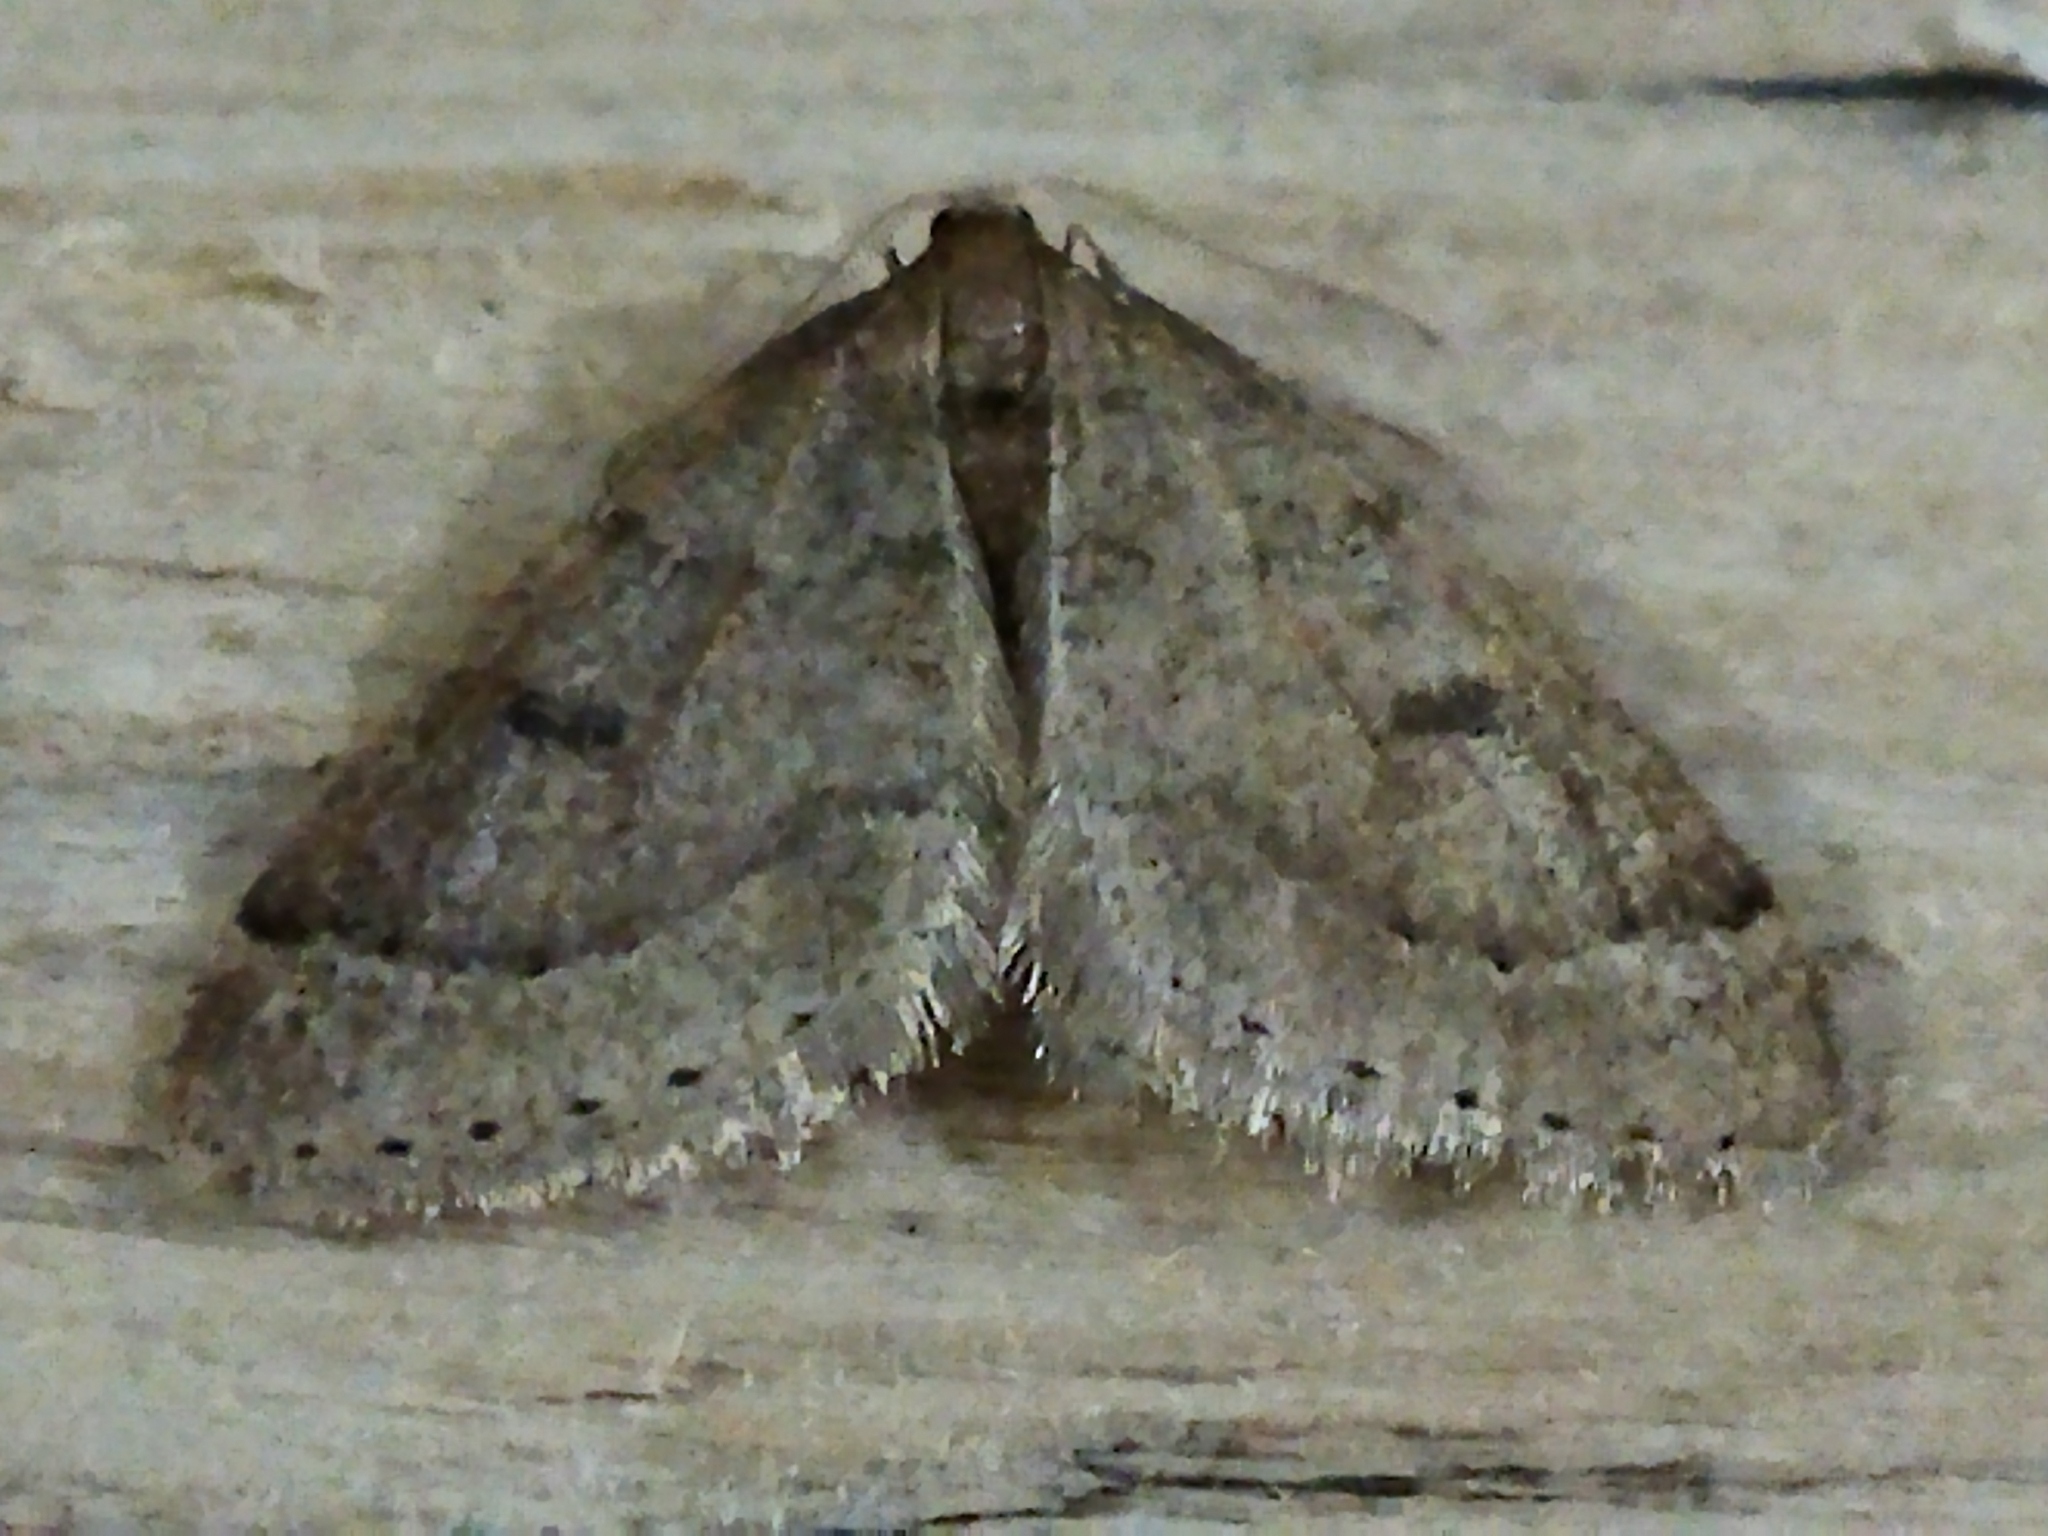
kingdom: Animalia
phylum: Arthropoda
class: Insecta
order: Lepidoptera
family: Geometridae
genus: Theria
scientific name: Theria rupicapraria
